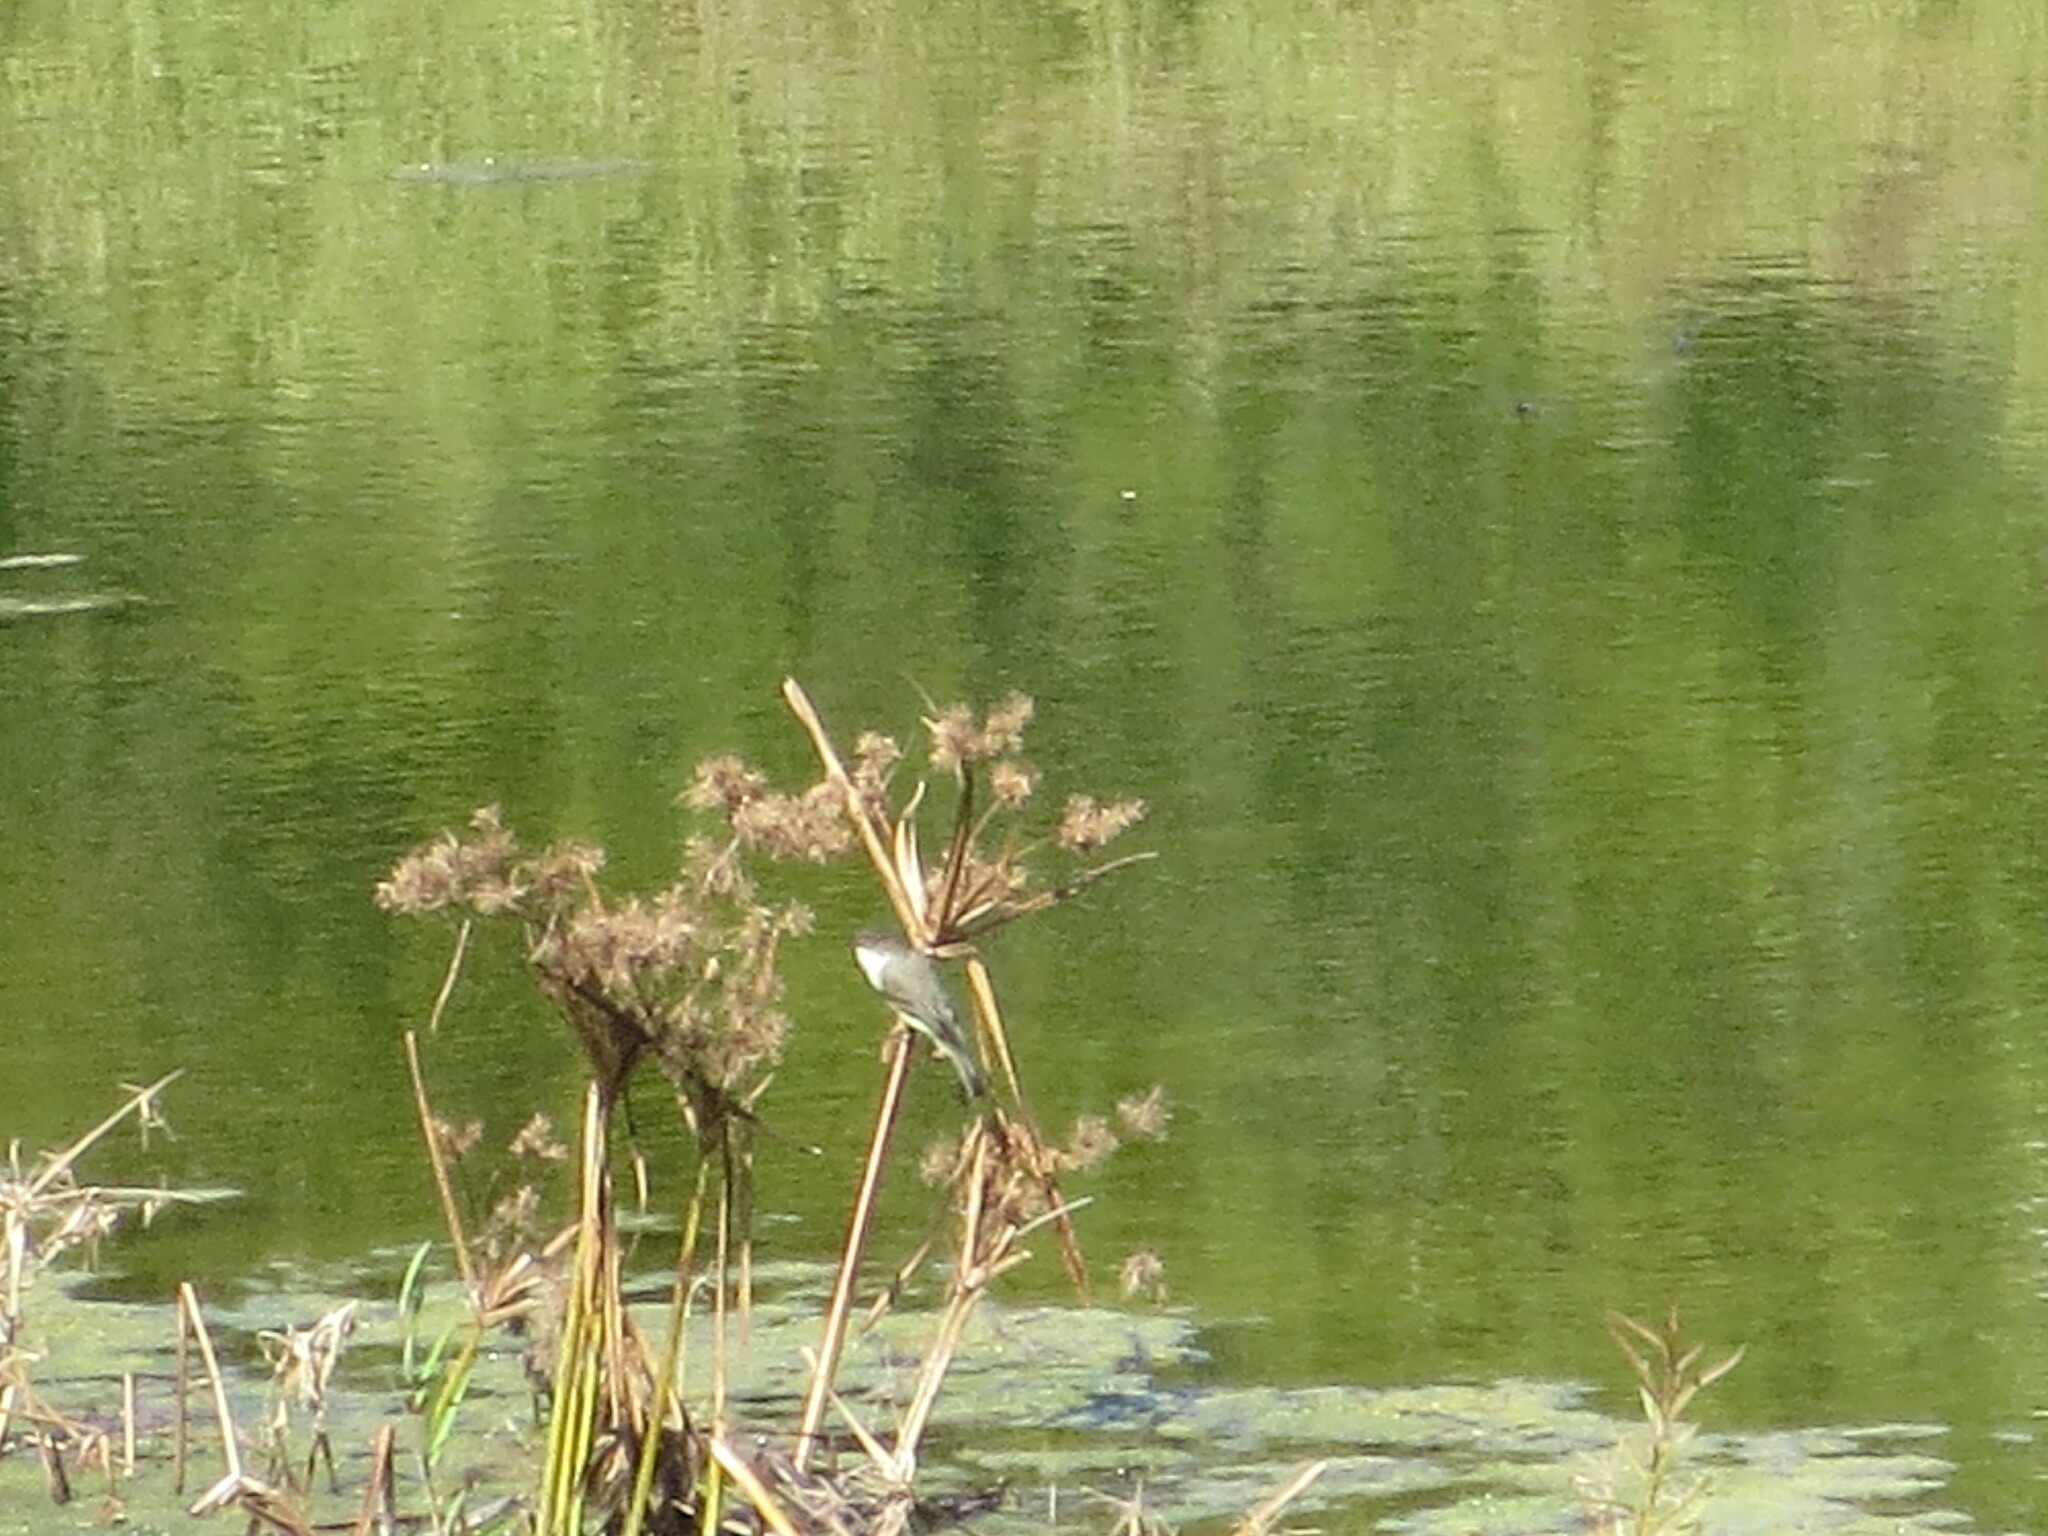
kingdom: Animalia
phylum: Chordata
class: Aves
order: Passeriformes
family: Tyrannidae
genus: Sayornis
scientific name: Sayornis phoebe
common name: Eastern phoebe
